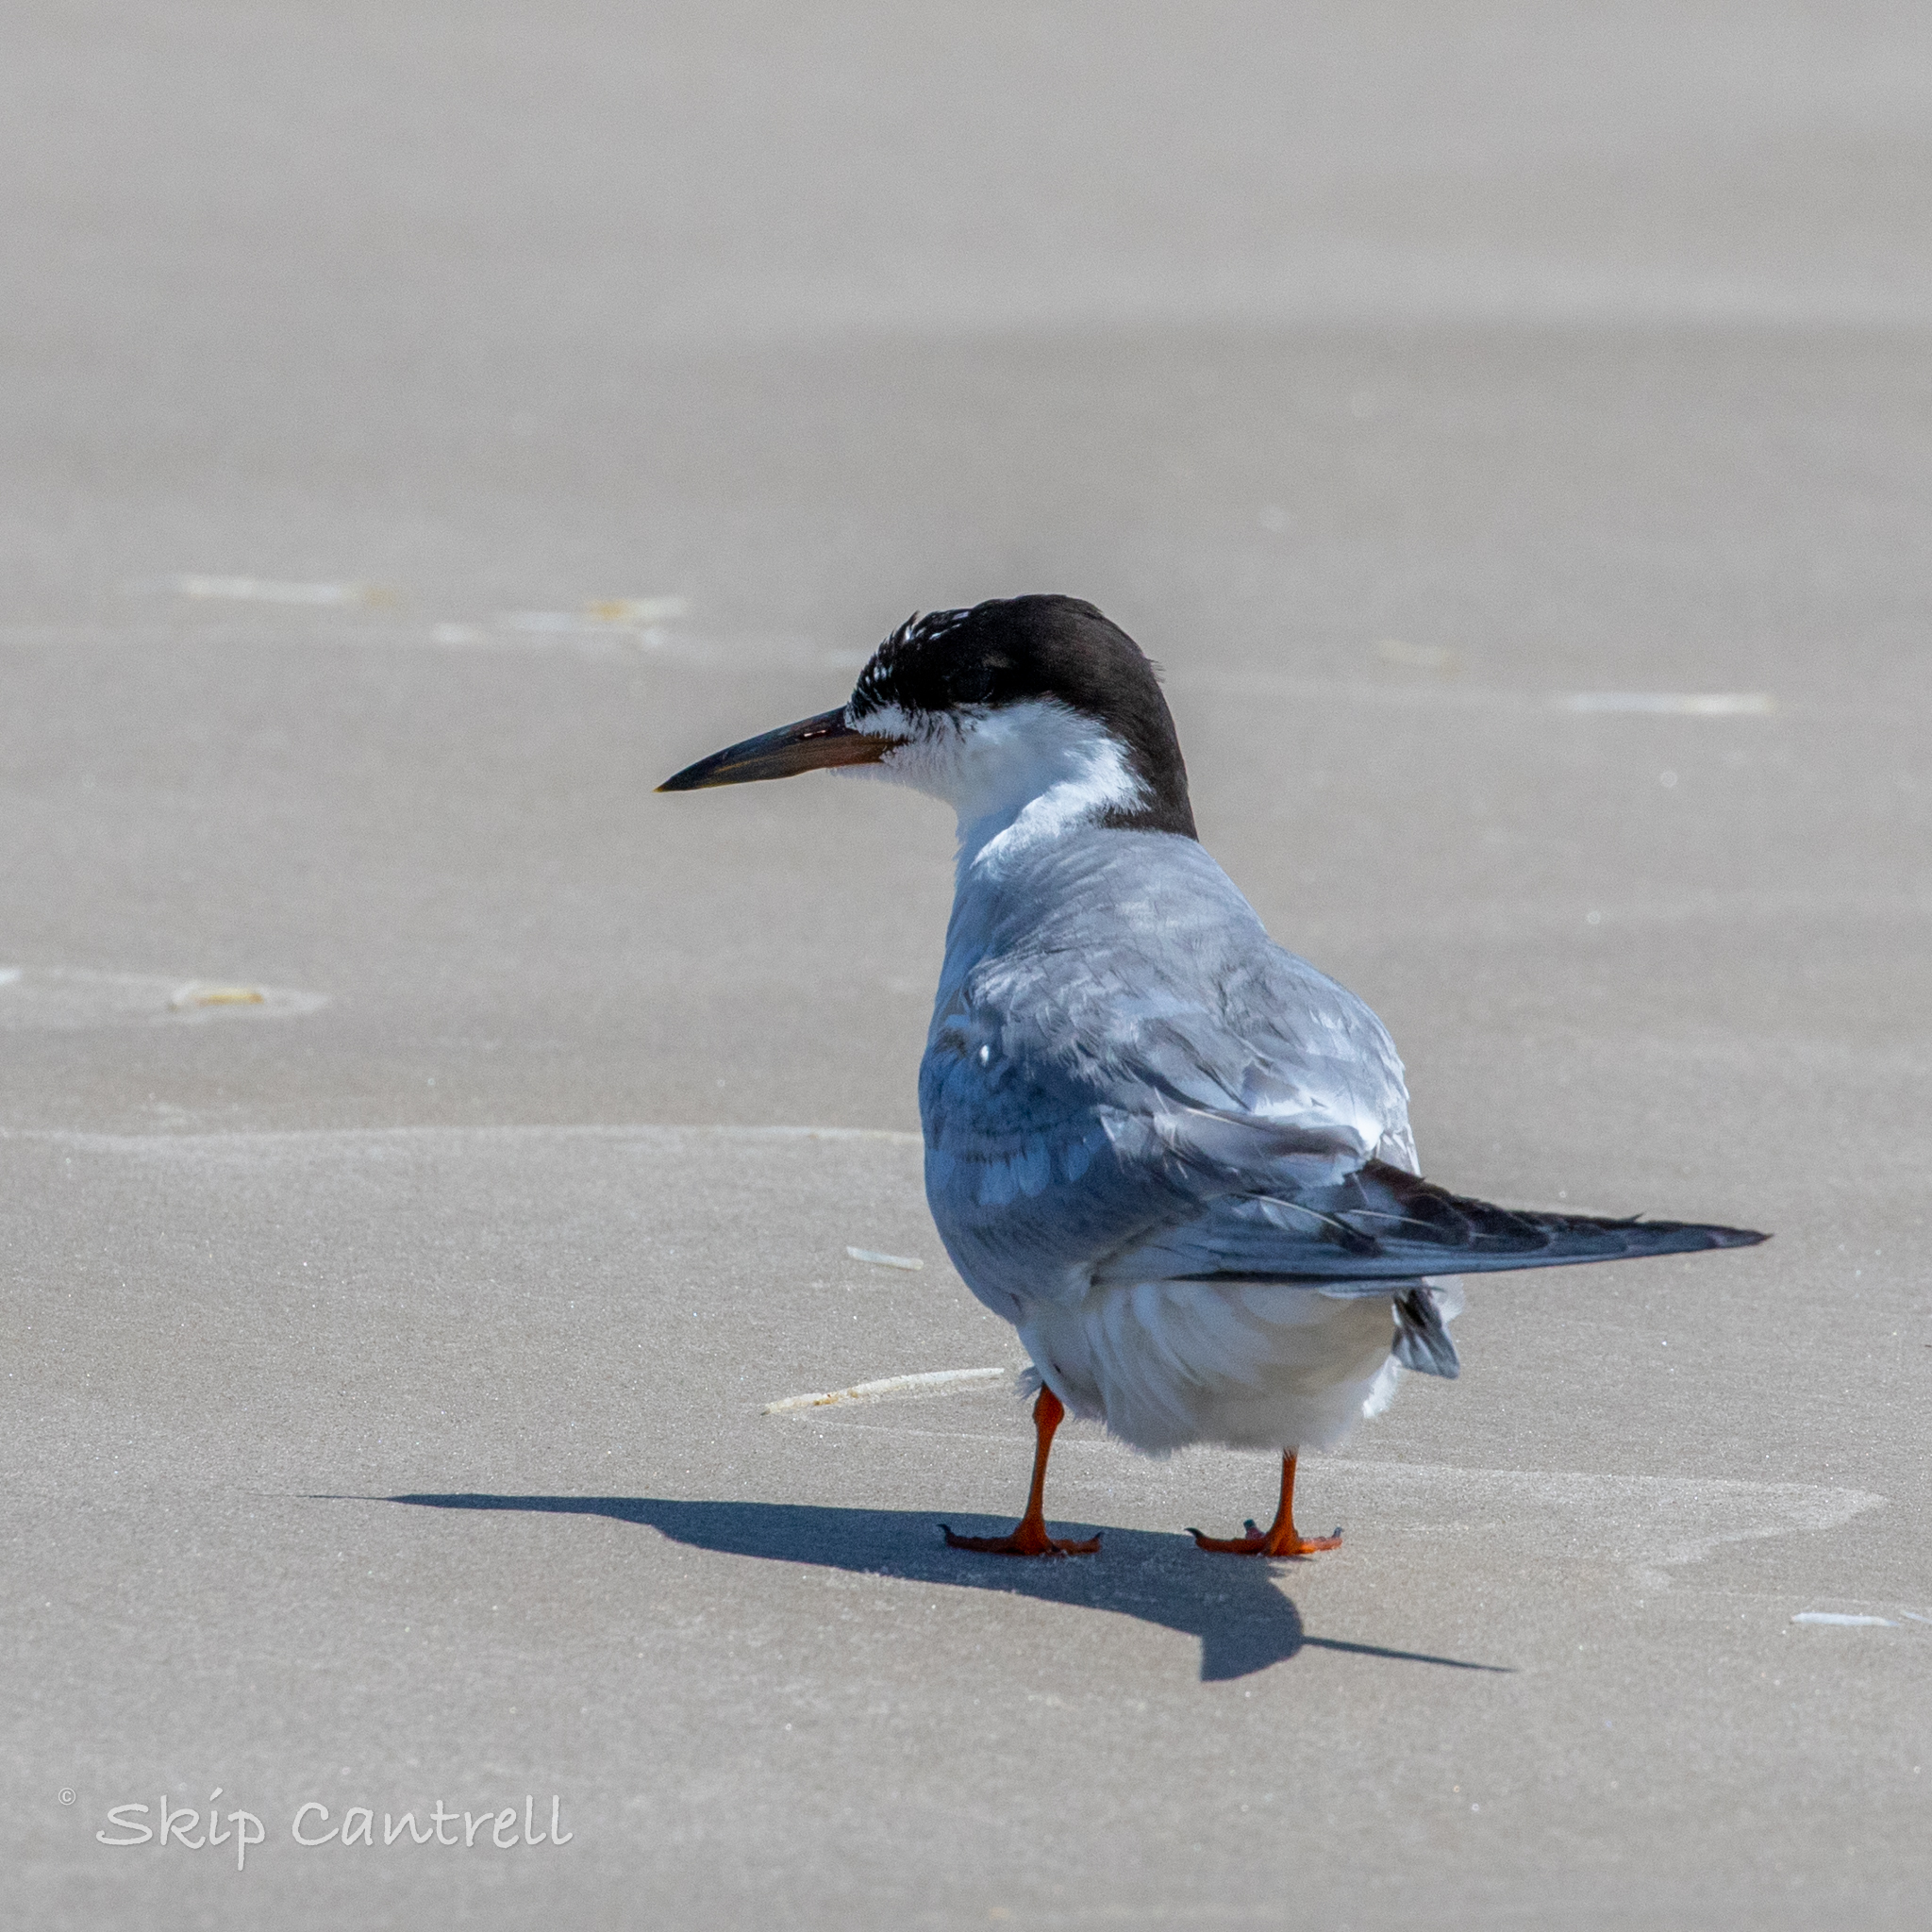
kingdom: Animalia
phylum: Chordata
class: Aves
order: Charadriiformes
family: Laridae
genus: Sterna
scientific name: Sterna forsteri
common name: Forster's tern
